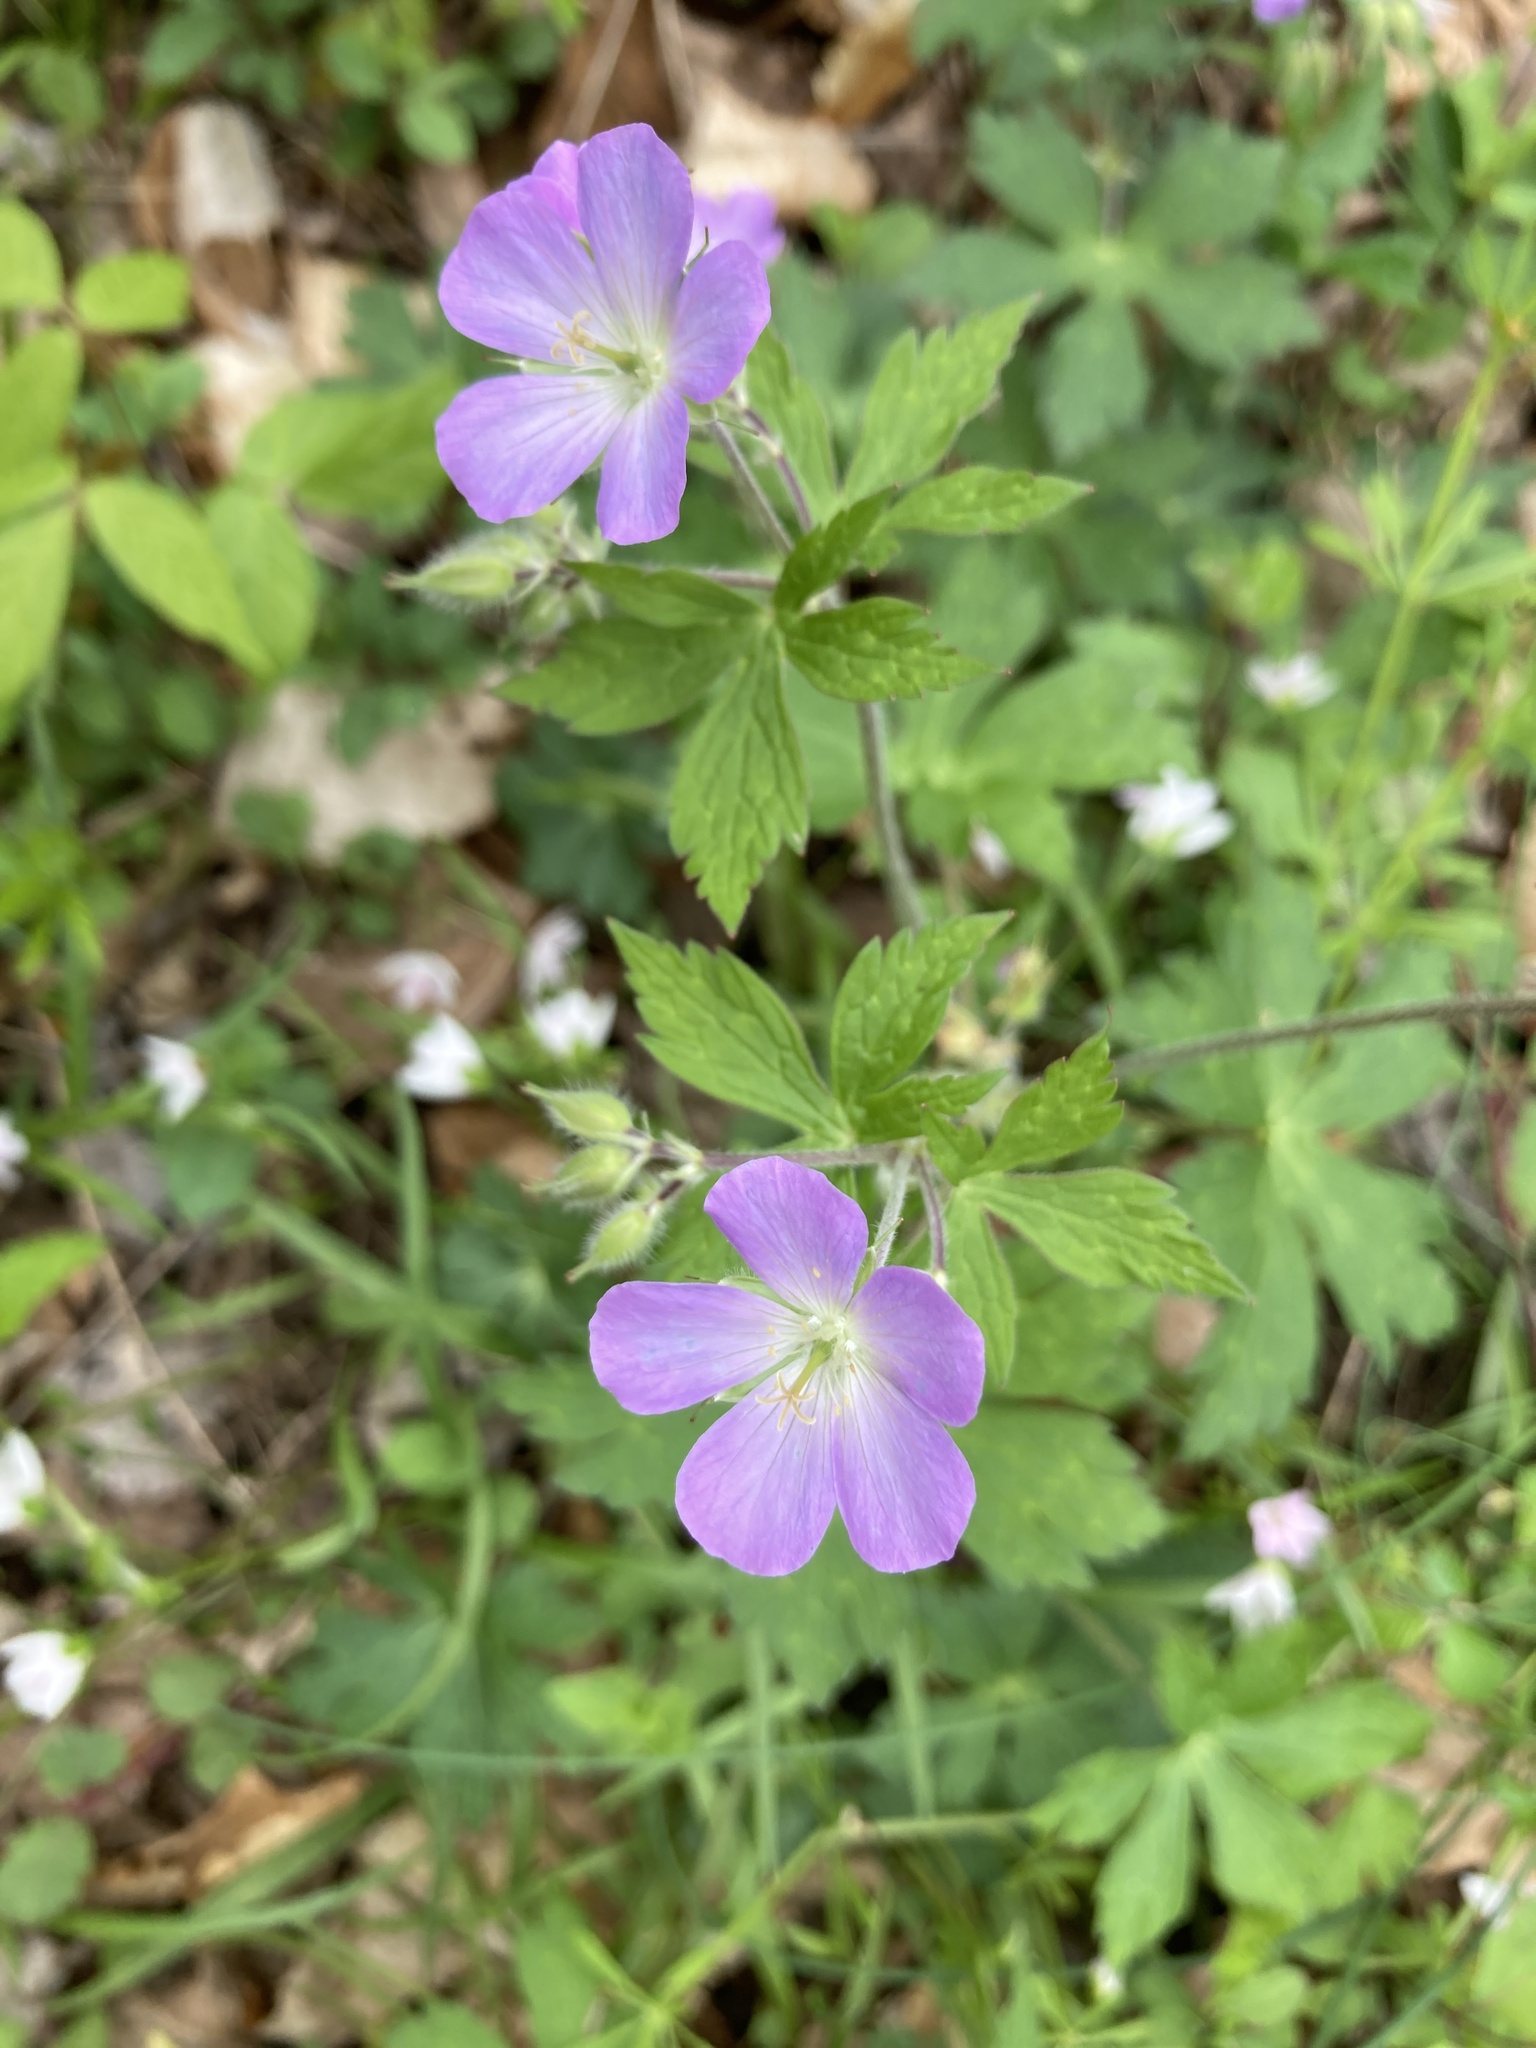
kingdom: Plantae
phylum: Tracheophyta
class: Magnoliopsida
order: Geraniales
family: Geraniaceae
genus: Geranium
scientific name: Geranium maculatum
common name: Spotted geranium
